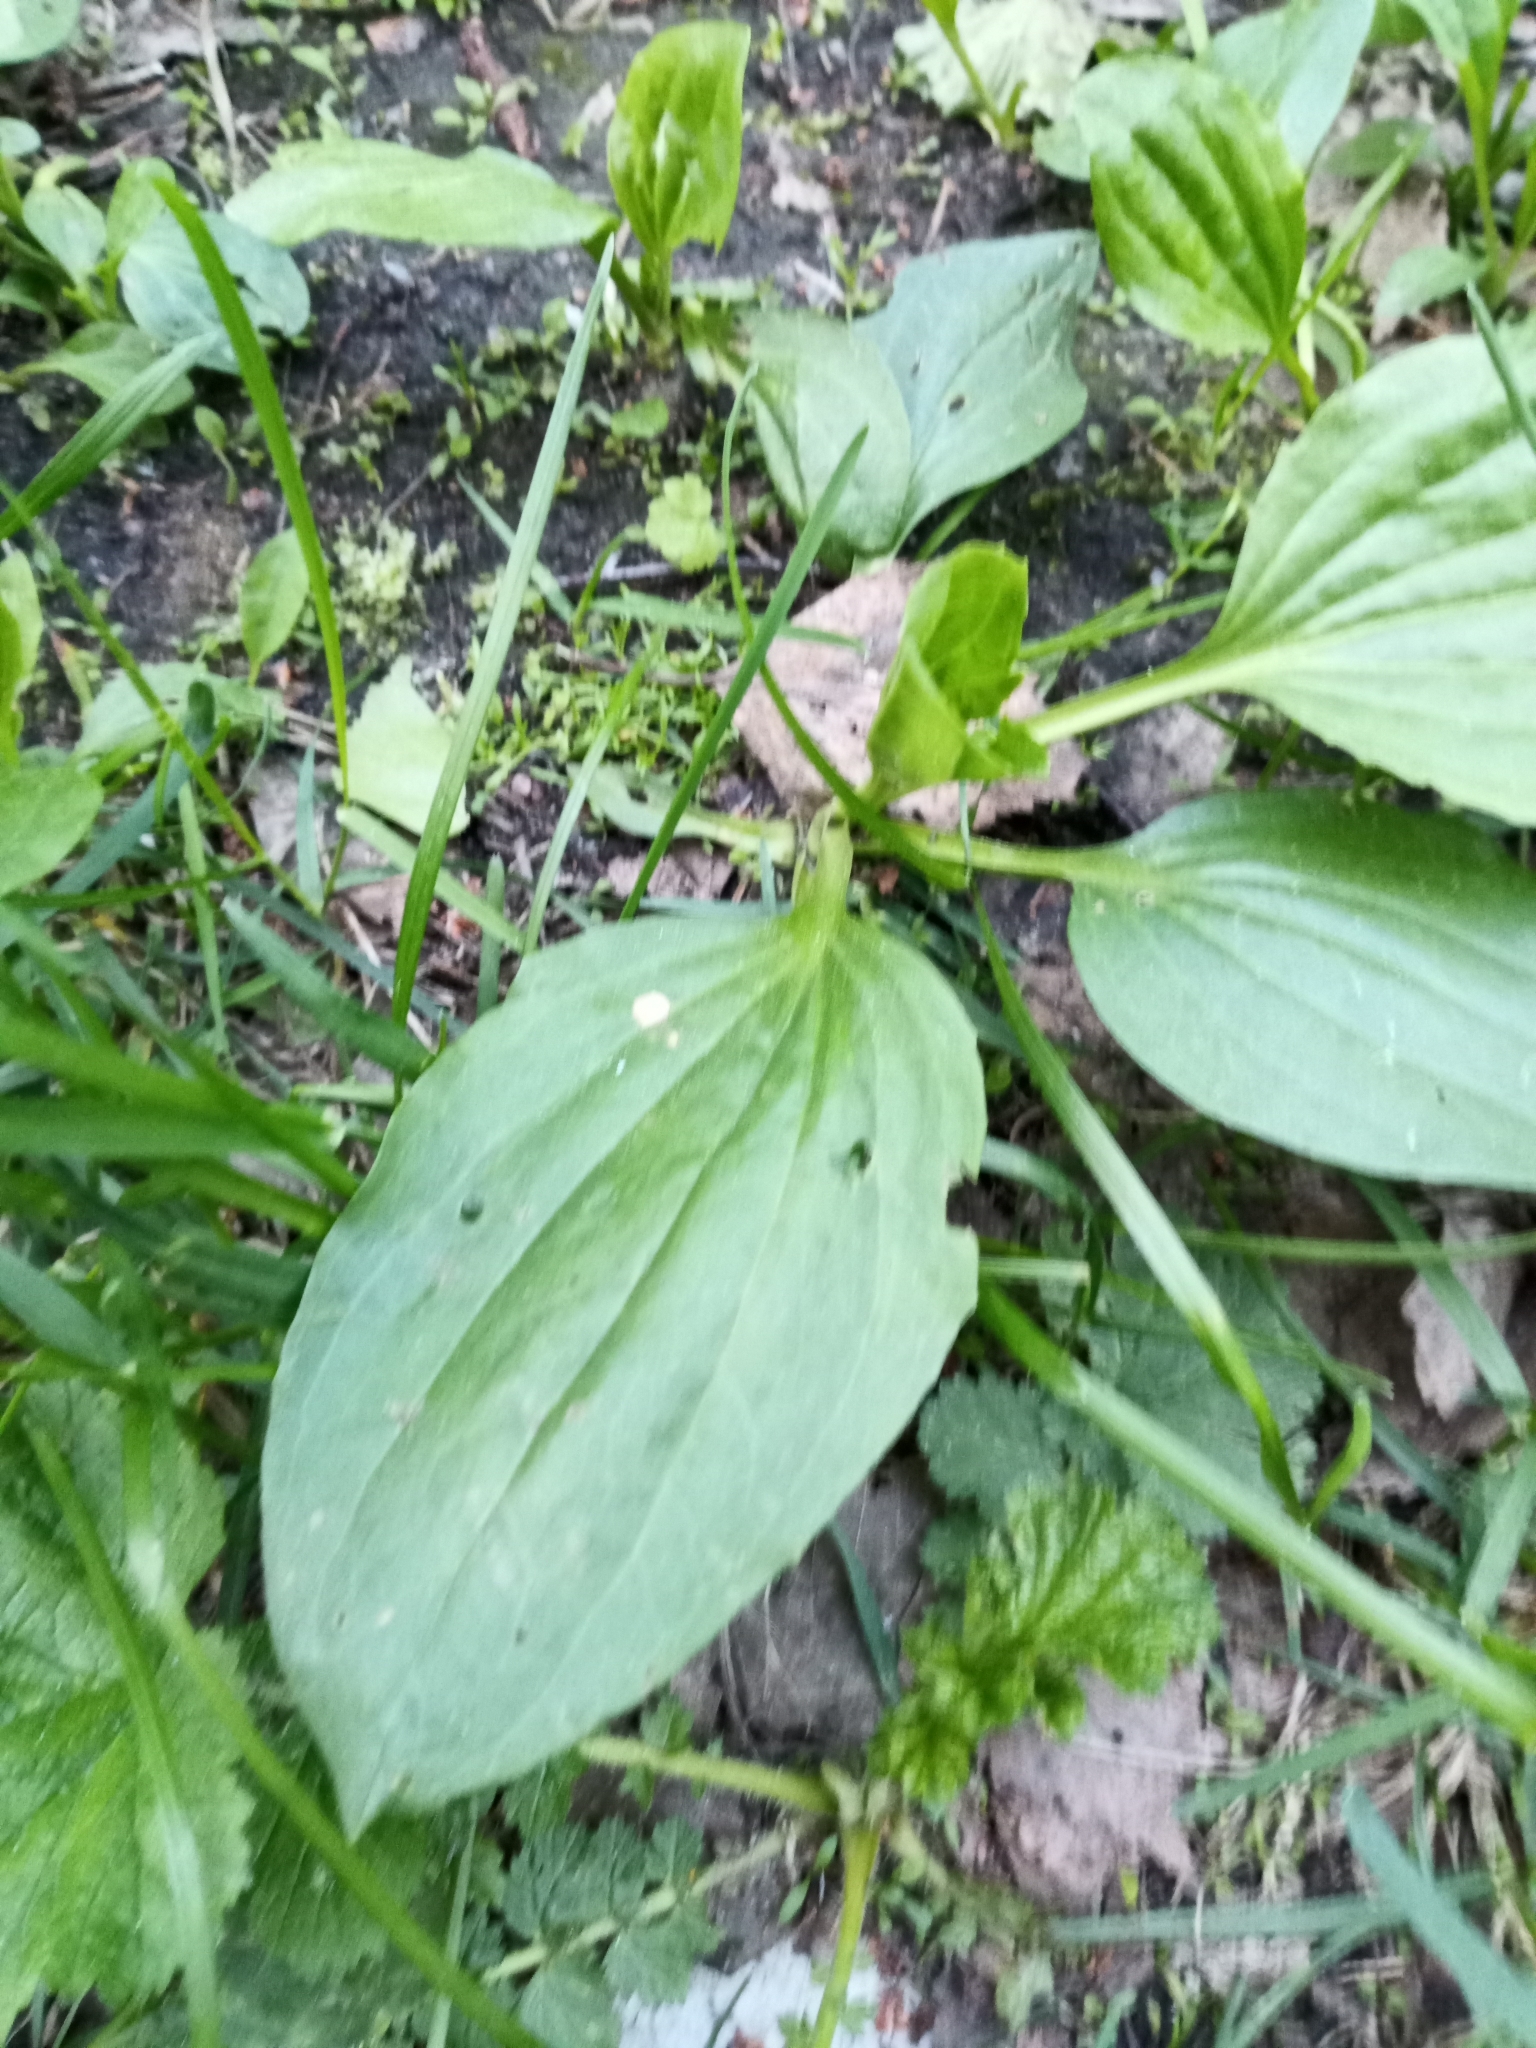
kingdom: Plantae
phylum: Tracheophyta
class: Magnoliopsida
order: Lamiales
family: Plantaginaceae
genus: Plantago
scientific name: Plantago major
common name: Common plantain
